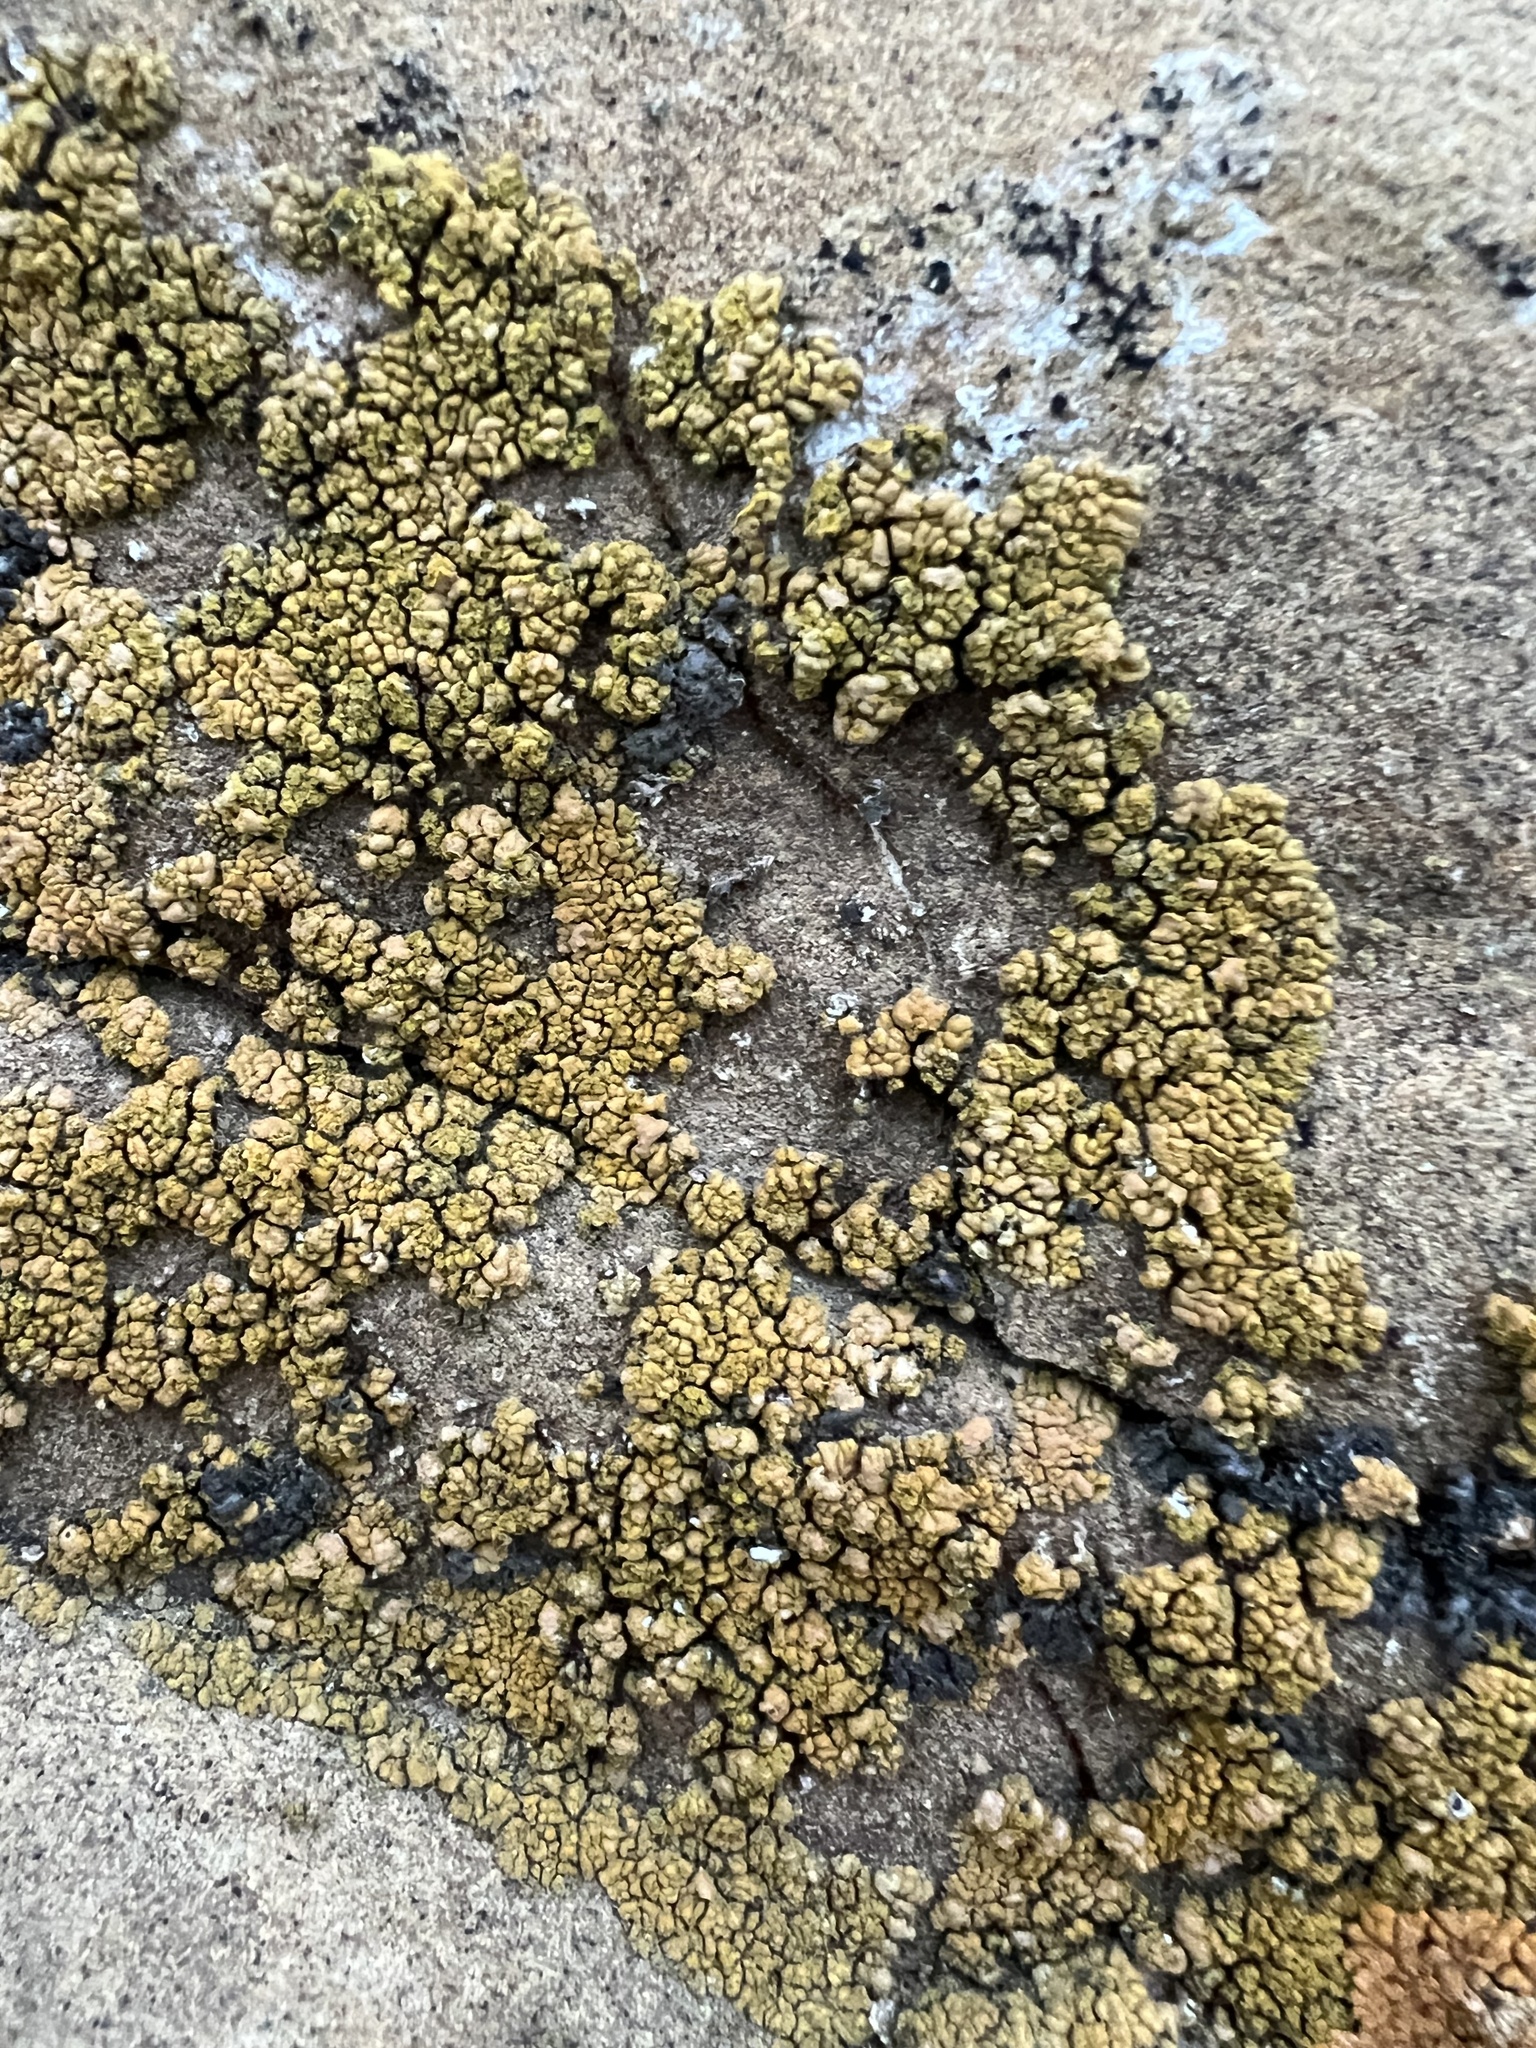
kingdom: Fungi
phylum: Ascomycota
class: Lecanoromycetes
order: Teloschistales
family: Teloschistaceae
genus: Calogaya
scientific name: Calogaya decipiens
